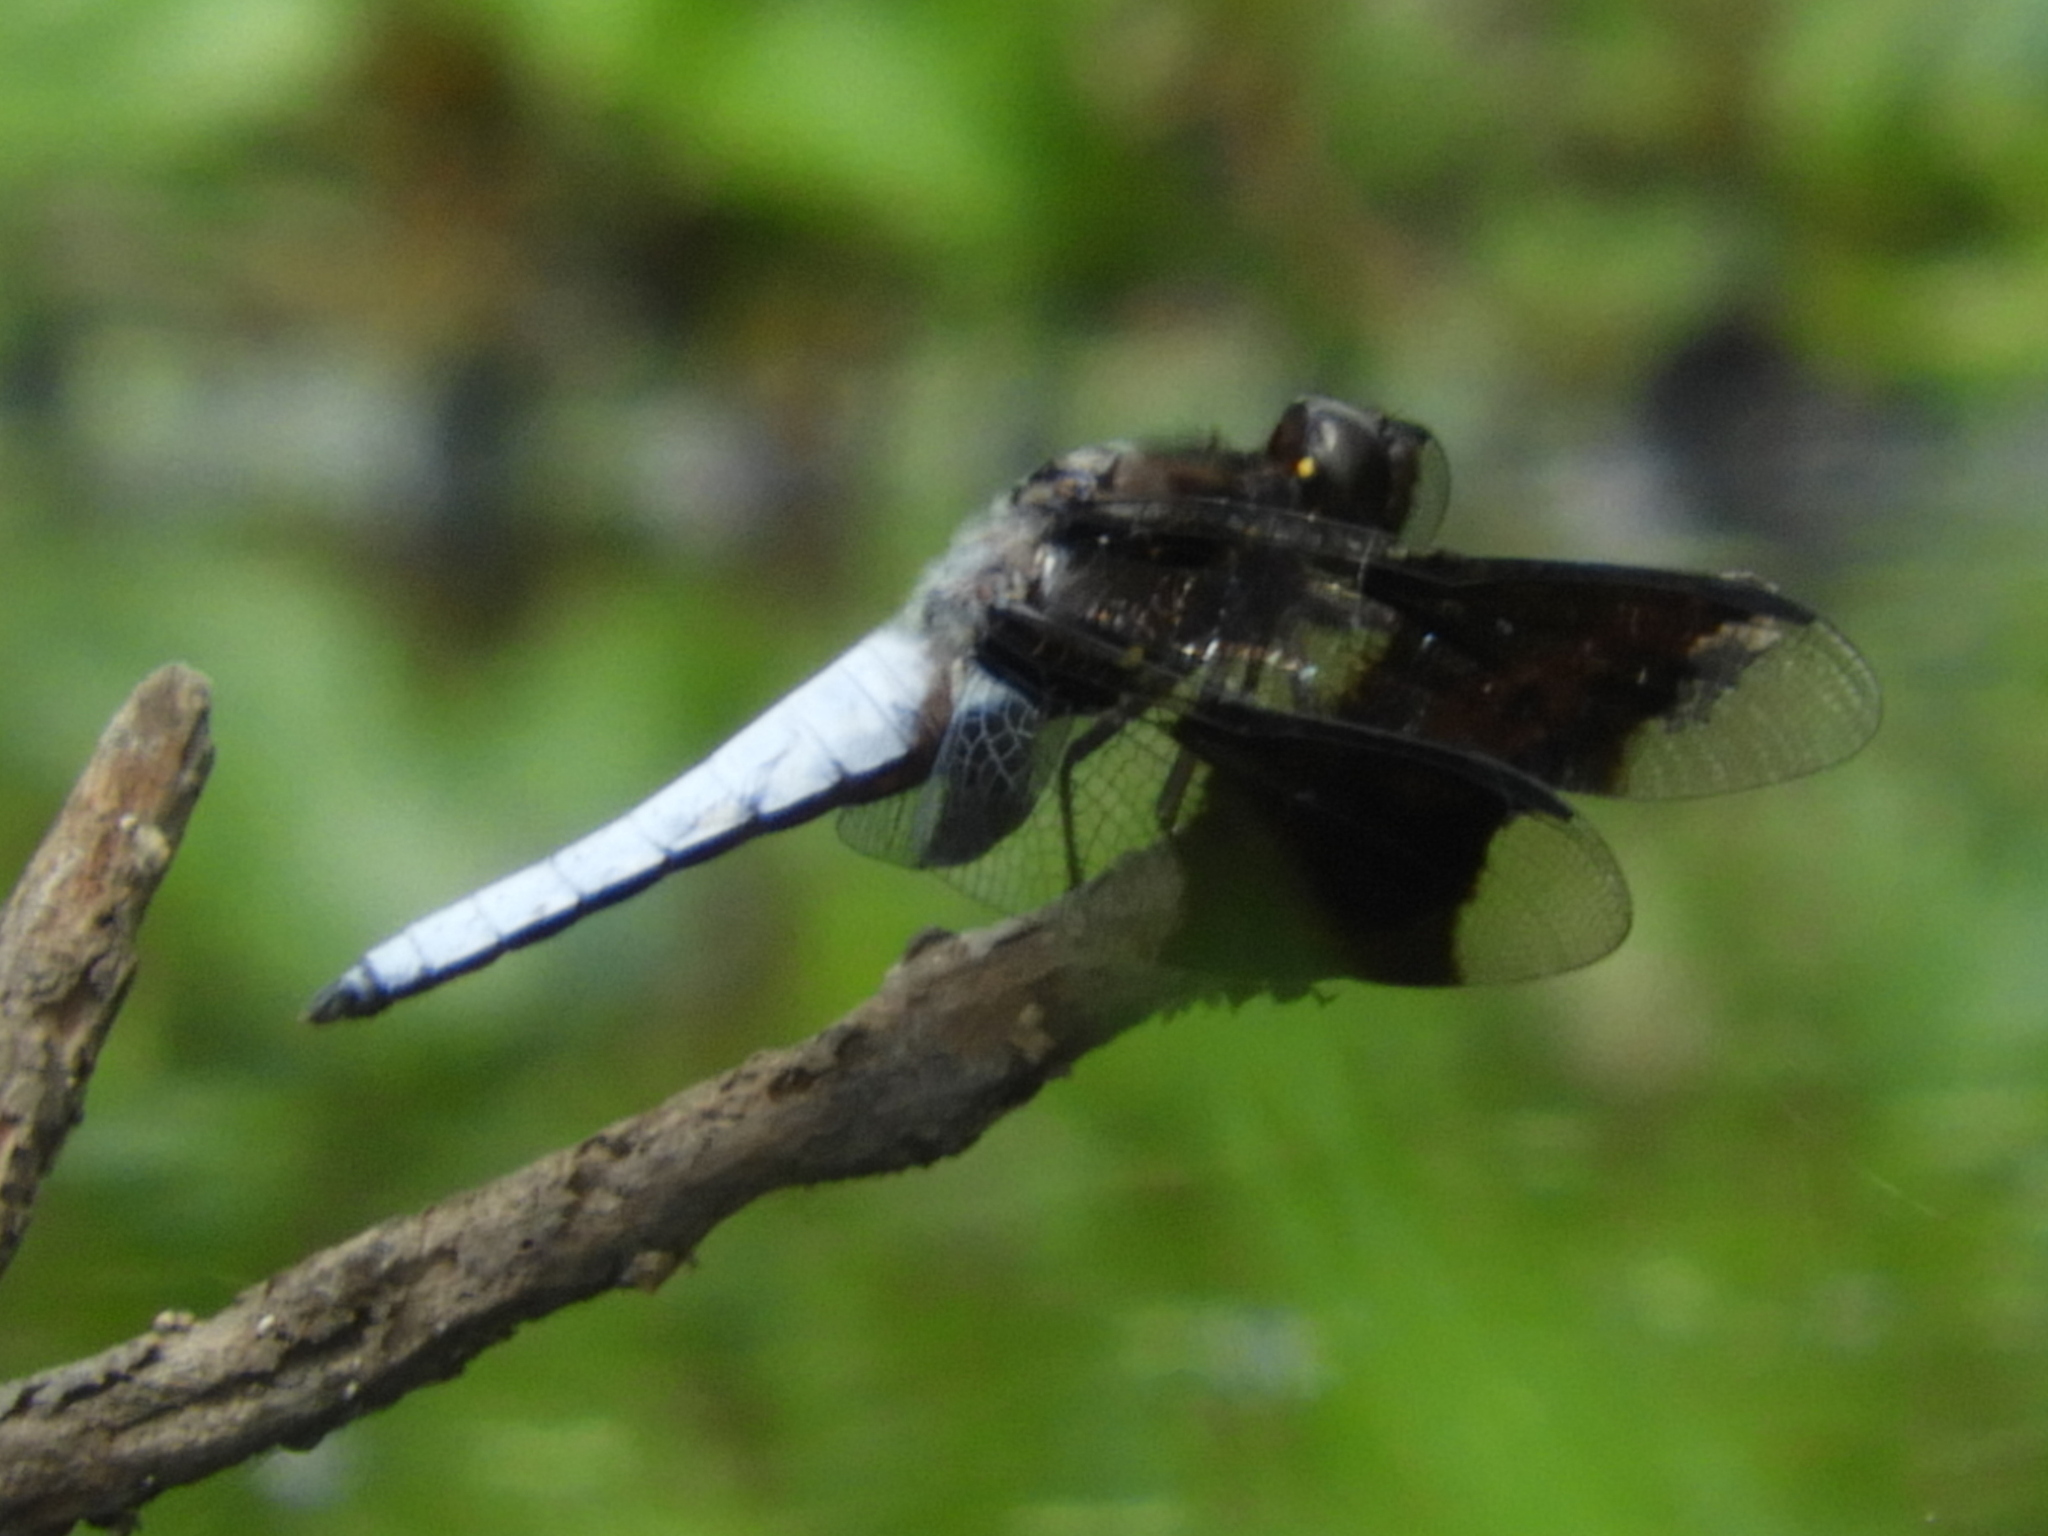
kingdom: Animalia
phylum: Arthropoda
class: Insecta
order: Odonata
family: Libellulidae
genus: Plathemis
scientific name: Plathemis lydia
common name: Common whitetail
